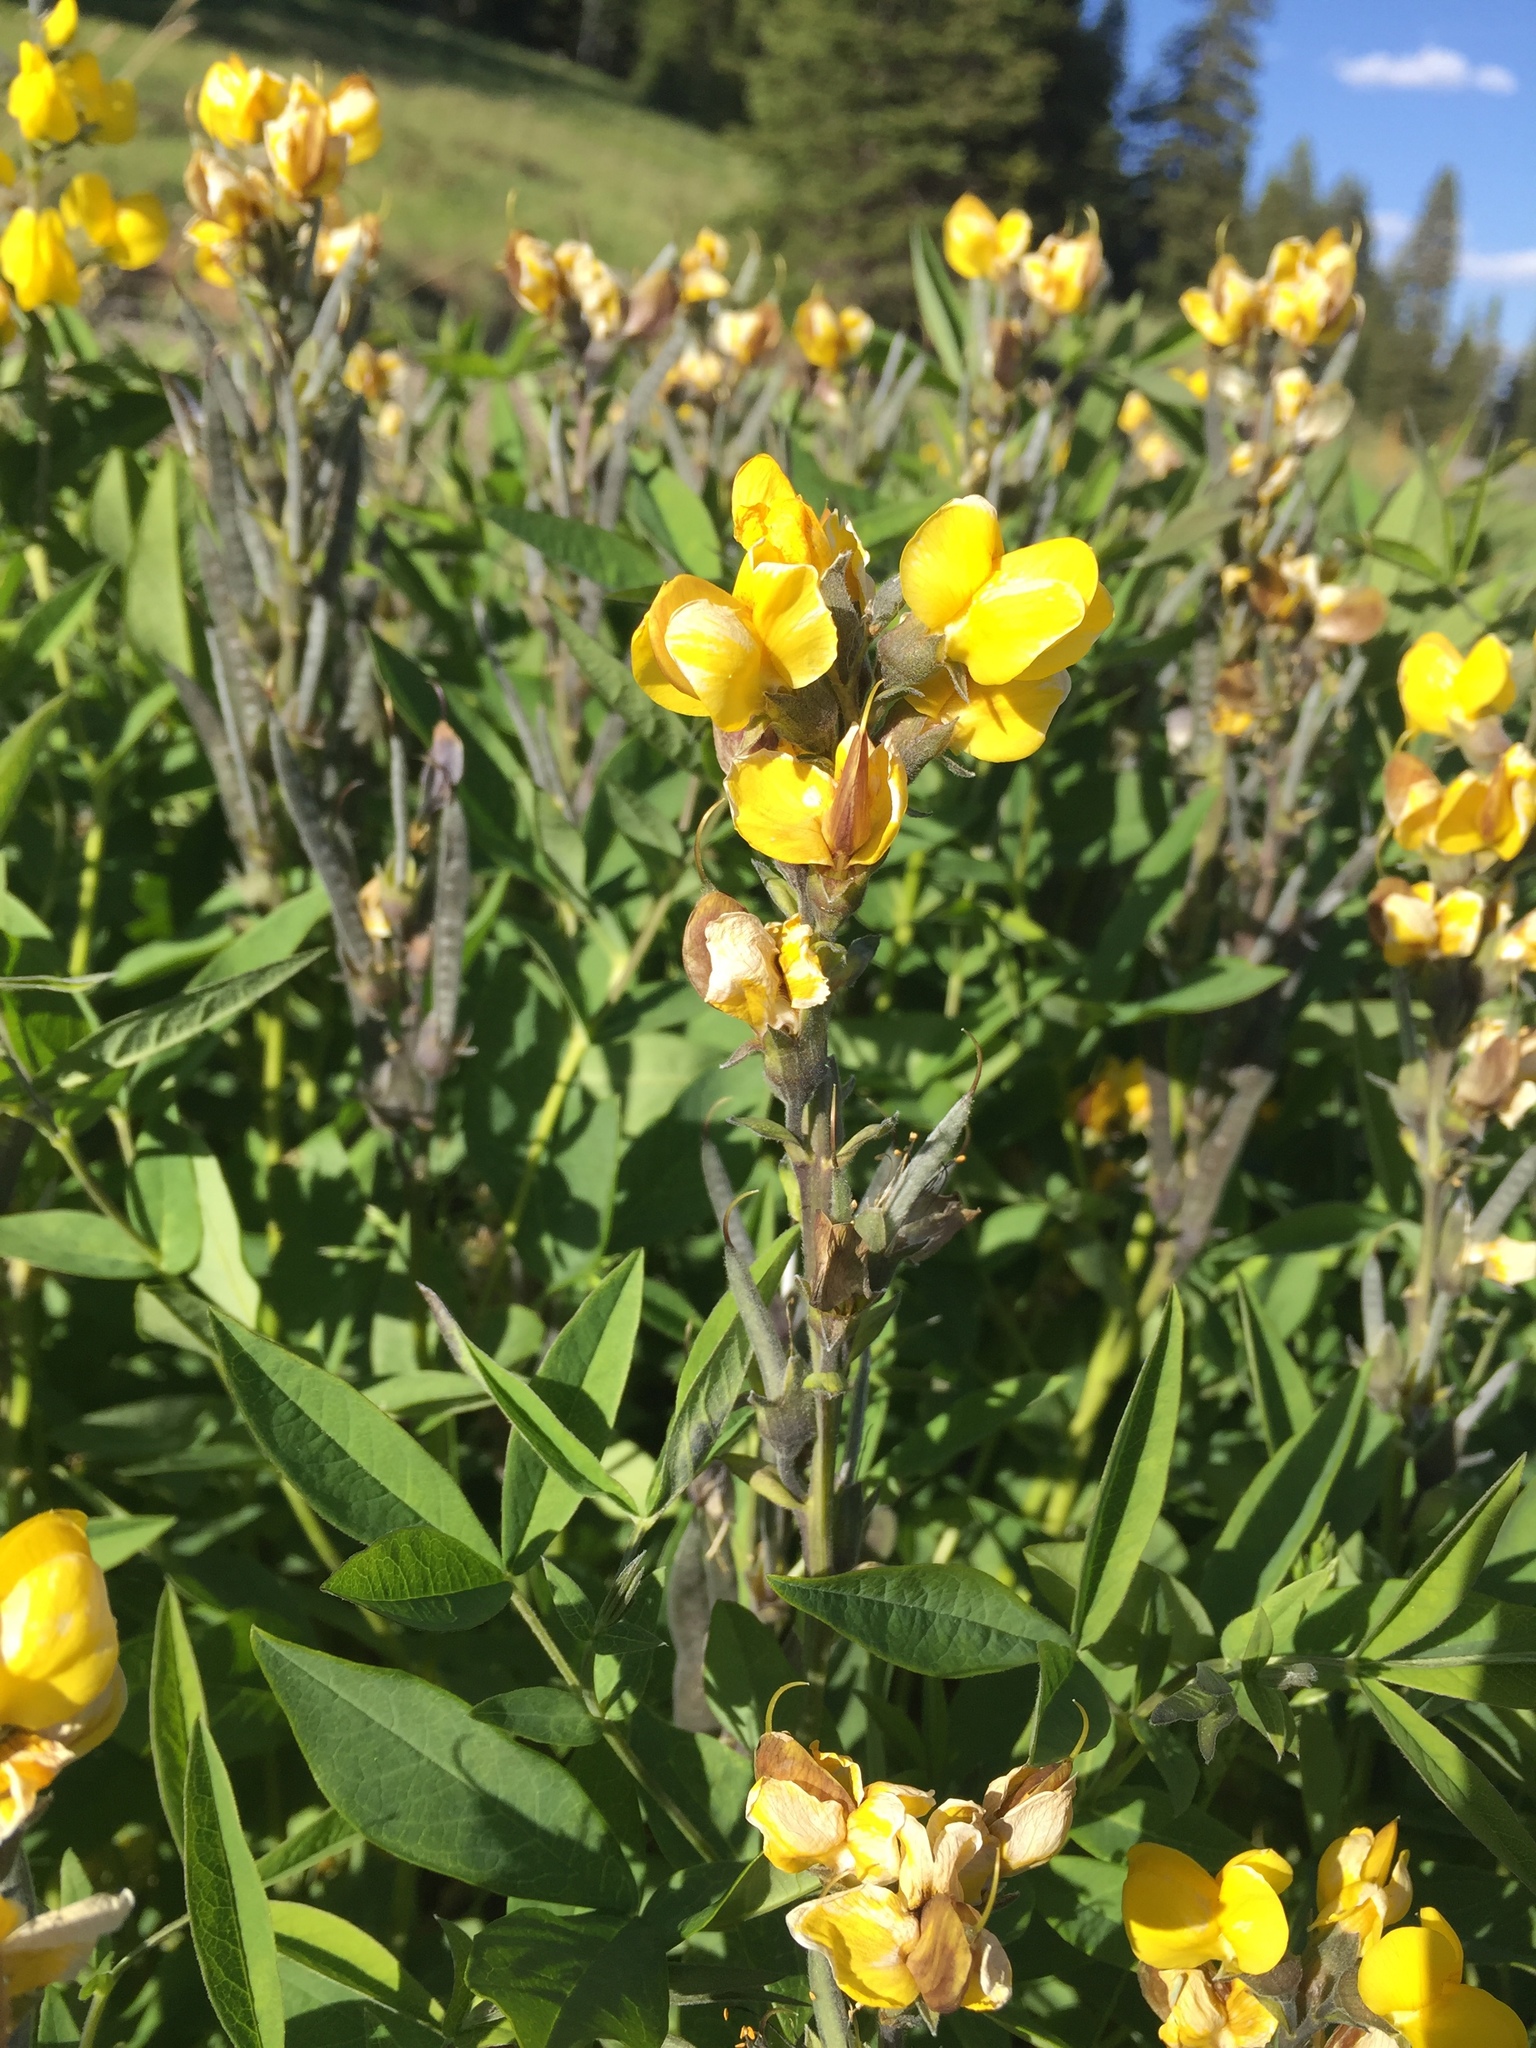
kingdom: Plantae
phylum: Tracheophyta
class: Magnoliopsida
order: Fabales
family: Fabaceae
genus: Thermopsis
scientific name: Thermopsis montana
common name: False lupin
